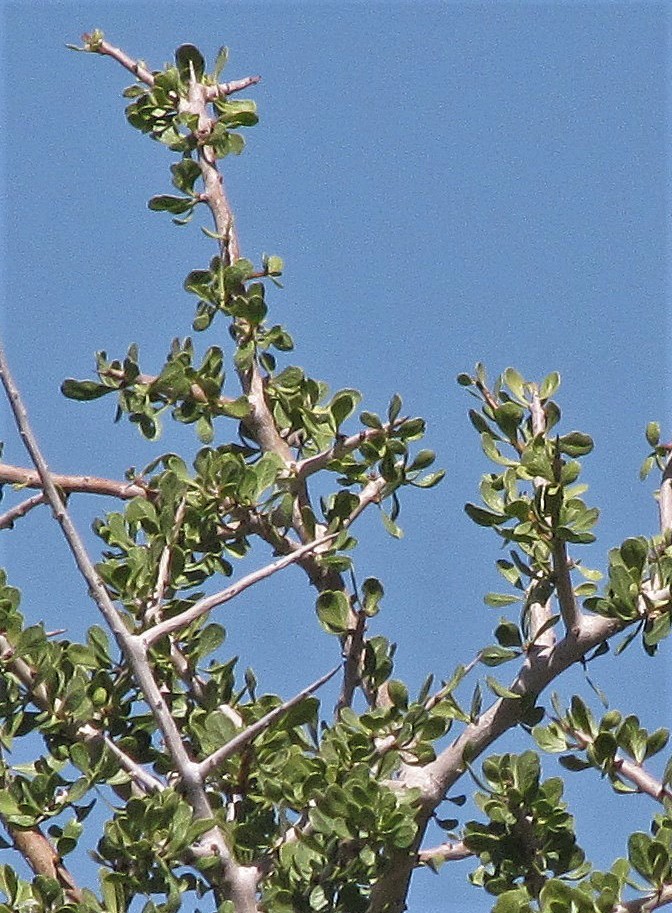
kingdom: Plantae
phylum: Tracheophyta
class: Magnoliopsida
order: Sapindales
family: Anacardiaceae
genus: Schinus
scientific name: Schinus johnstonii
